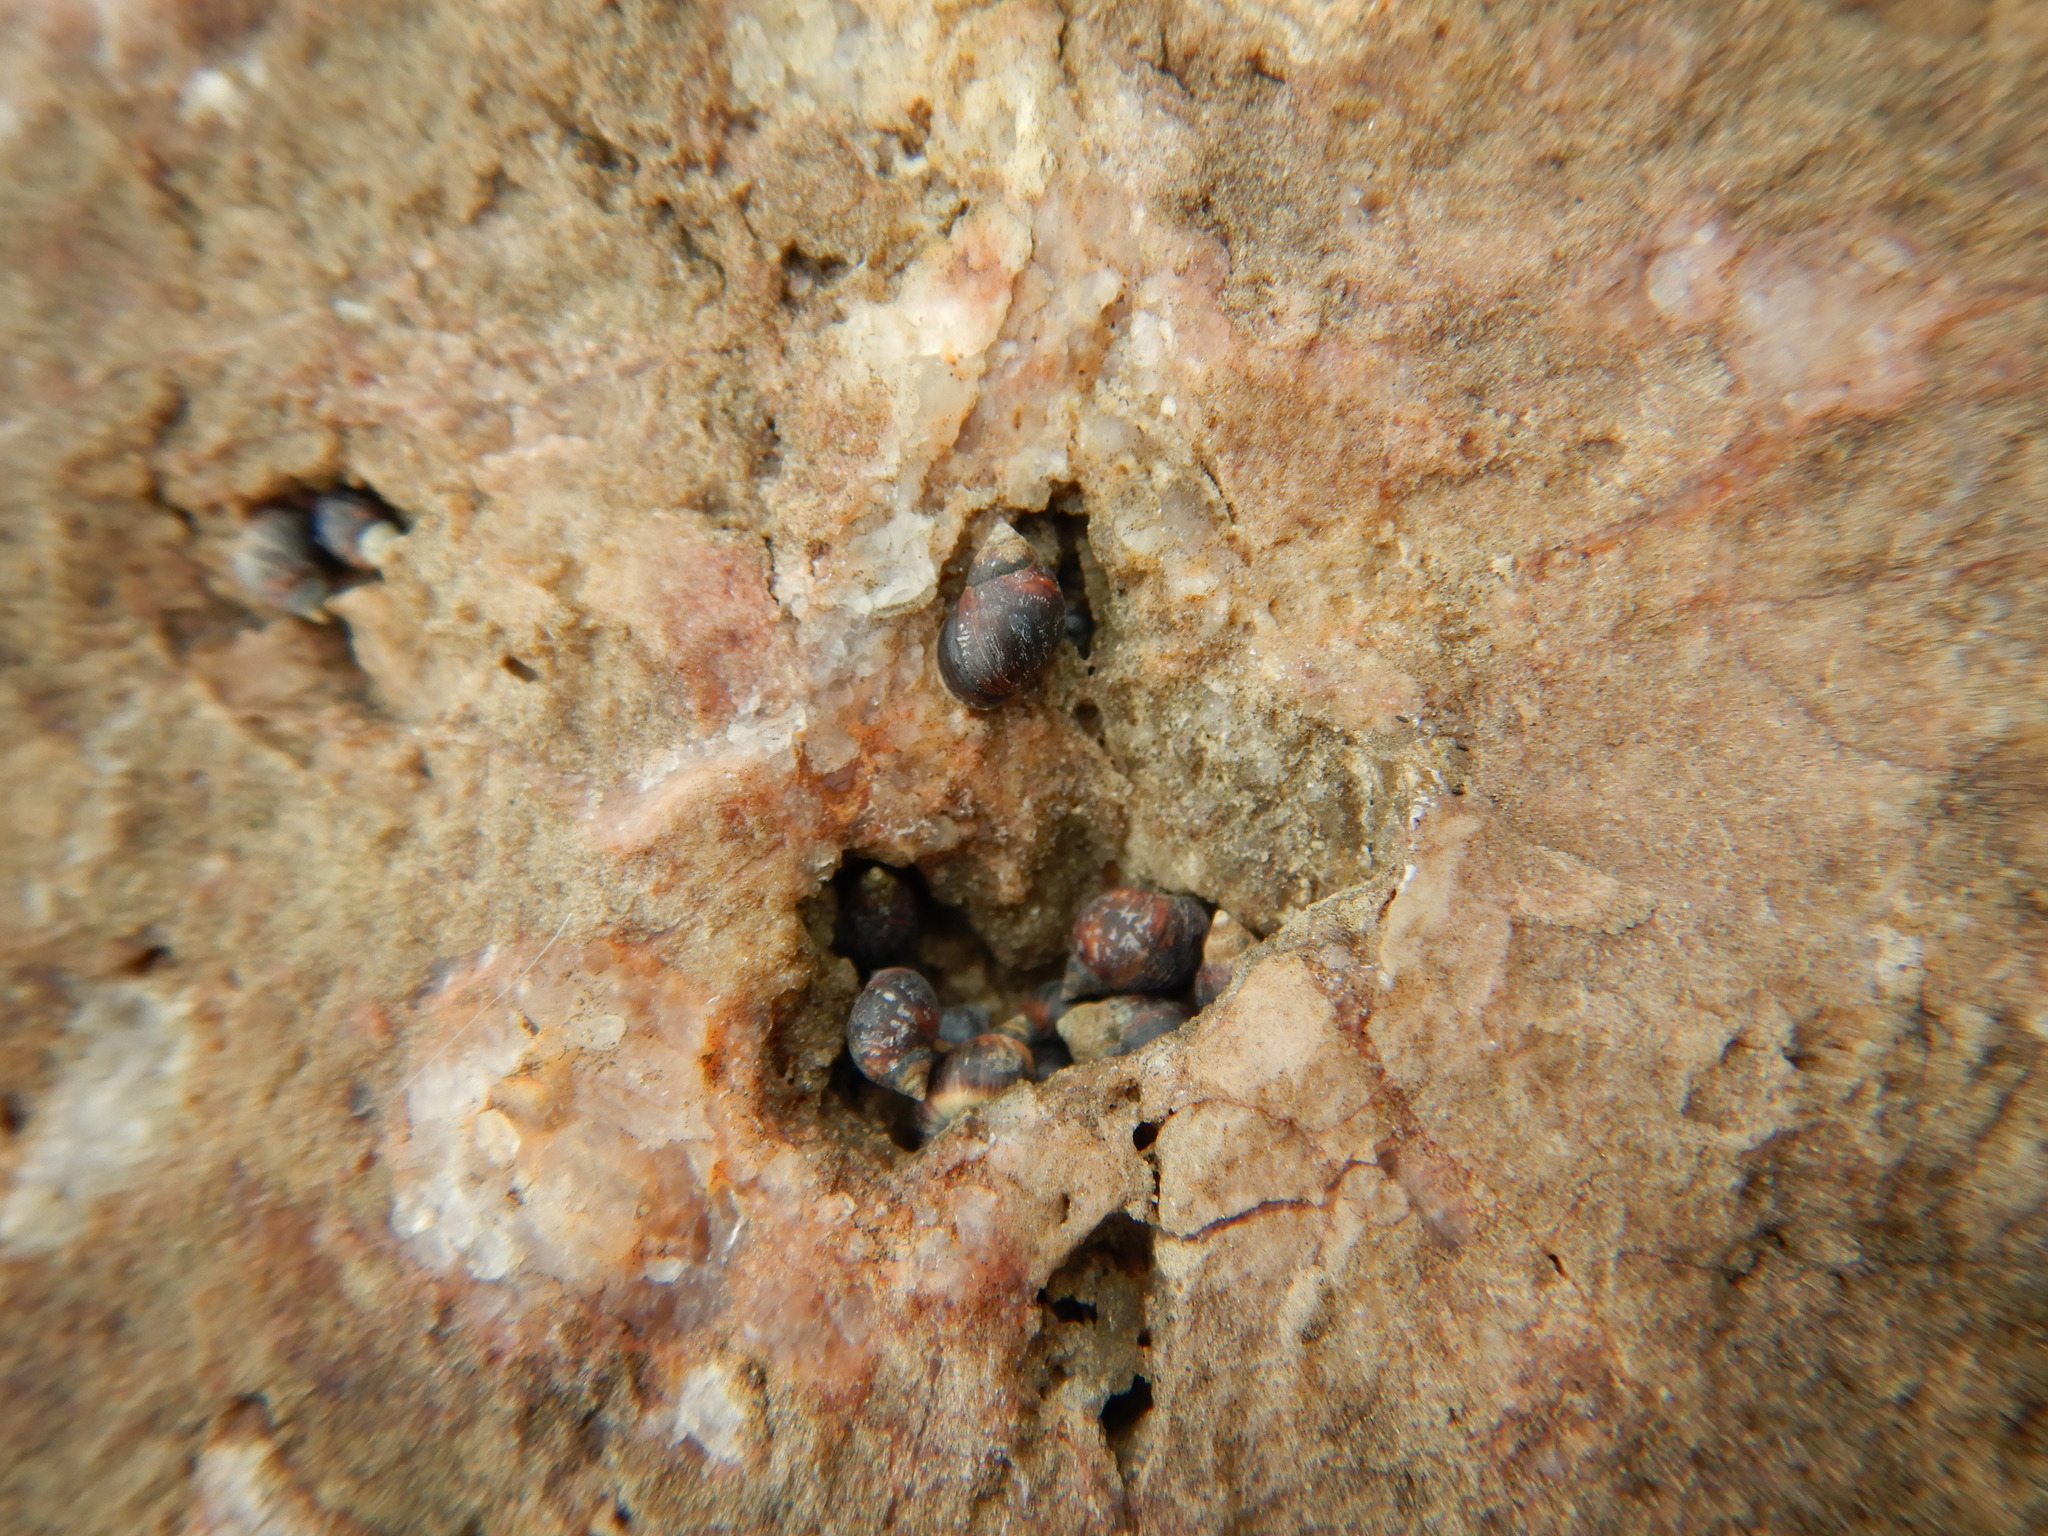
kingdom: Animalia
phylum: Mollusca
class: Gastropoda
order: Littorinimorpha
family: Littorinidae
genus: Melarhaphe
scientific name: Melarhaphe neritoides
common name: Small periwinkle
